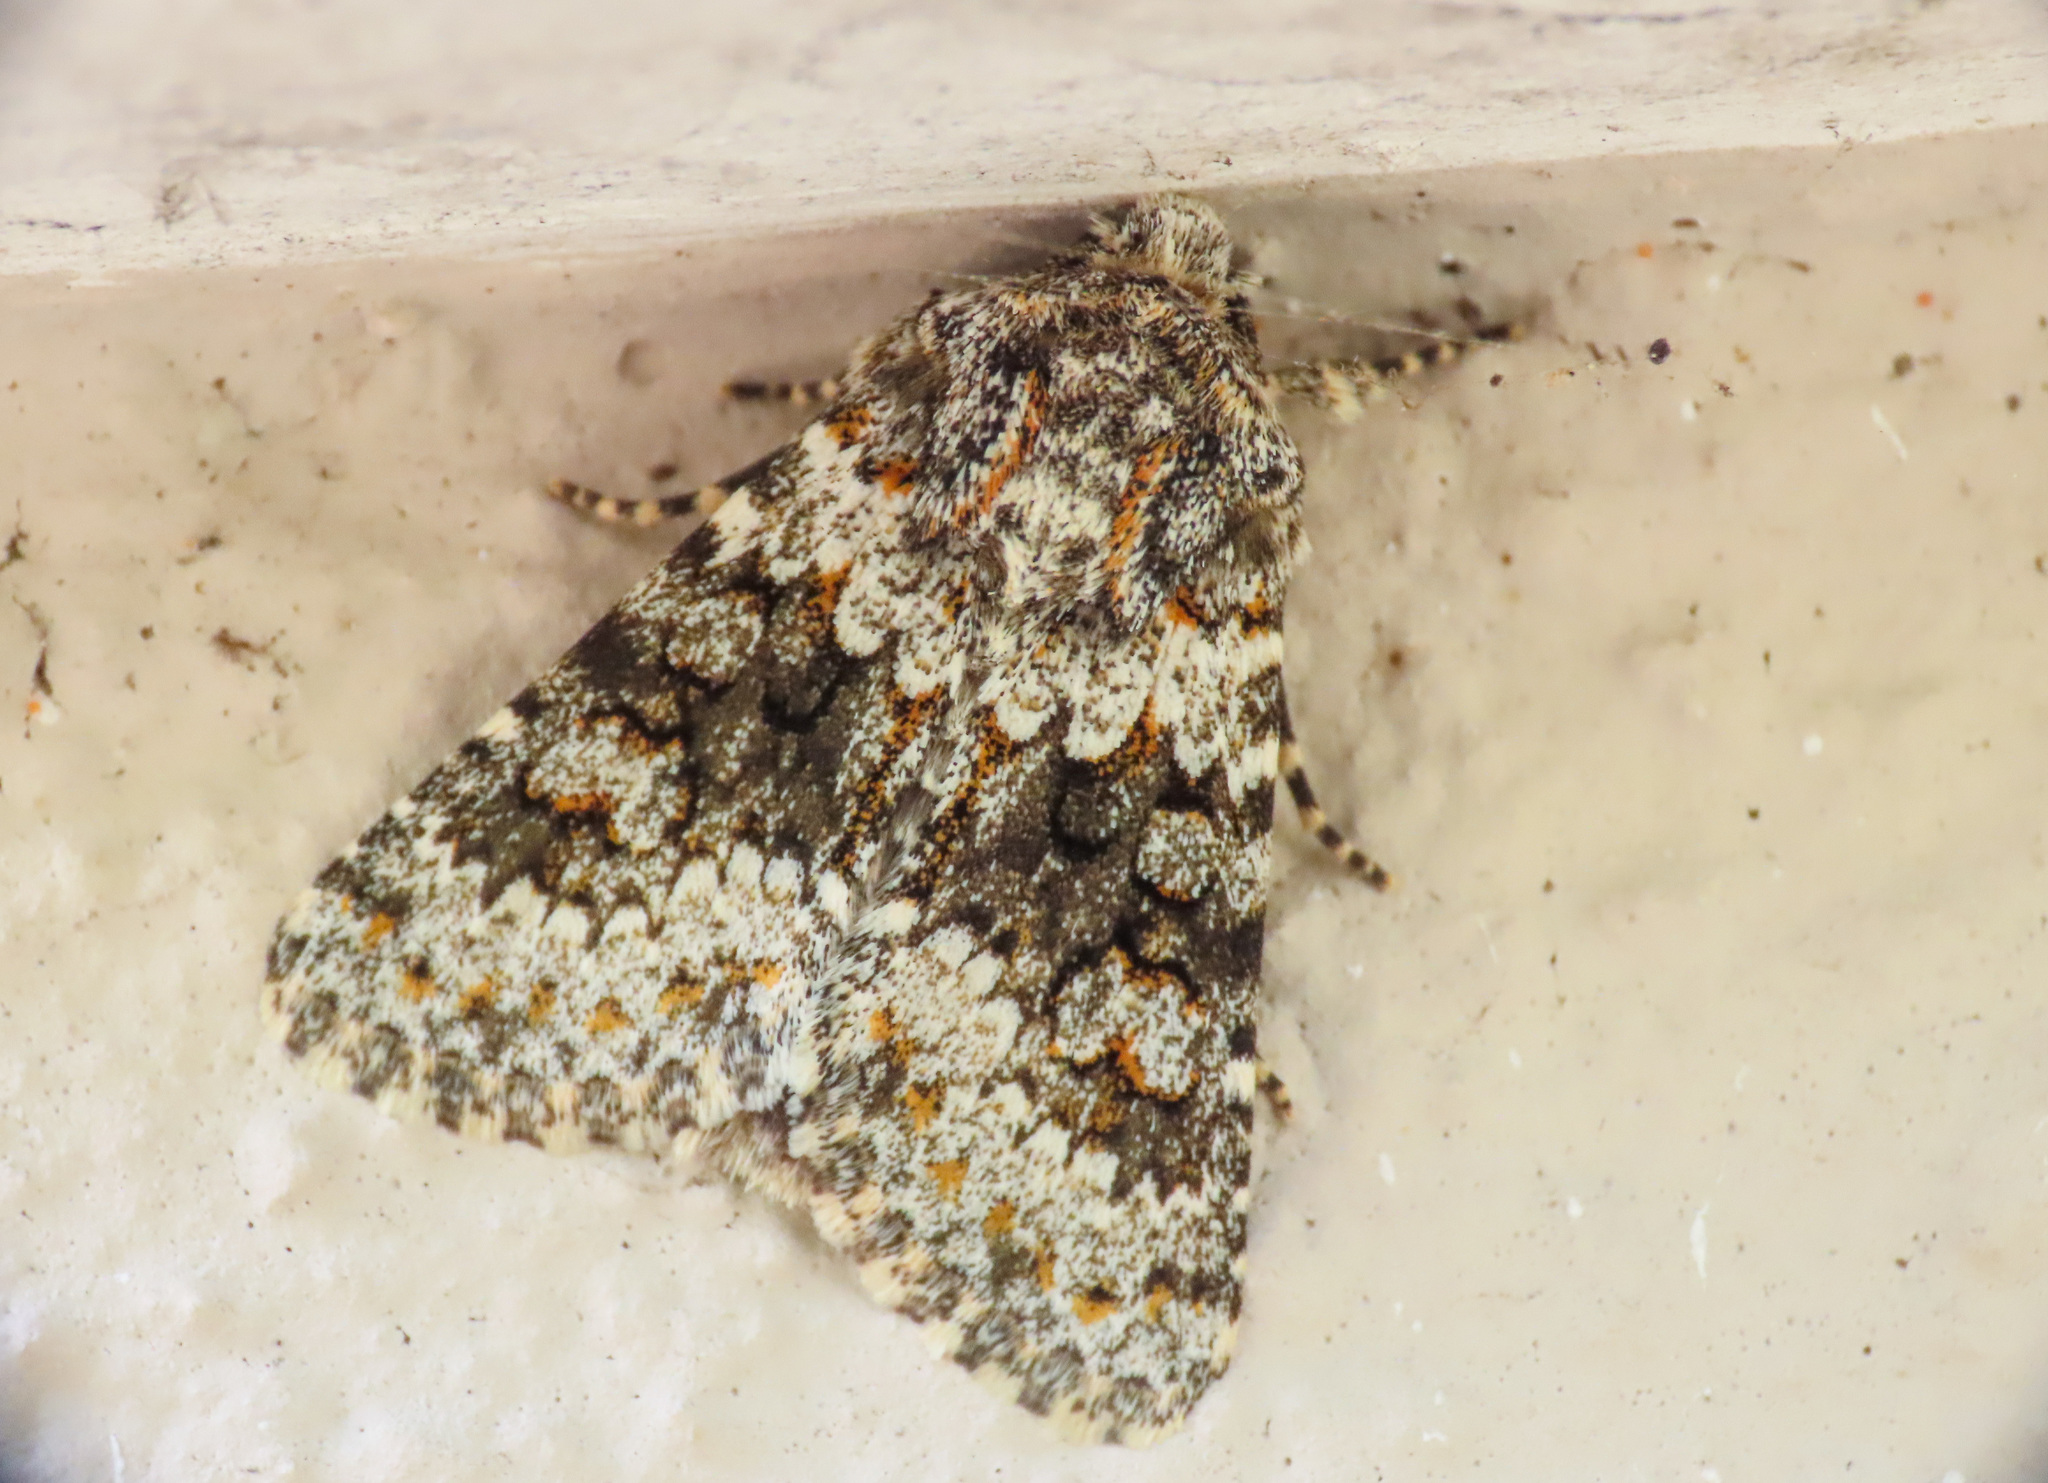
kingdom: Animalia
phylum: Arthropoda
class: Insecta
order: Lepidoptera
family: Noctuidae
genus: Hecatera
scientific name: Hecatera dysodea
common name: Small ranunculus
